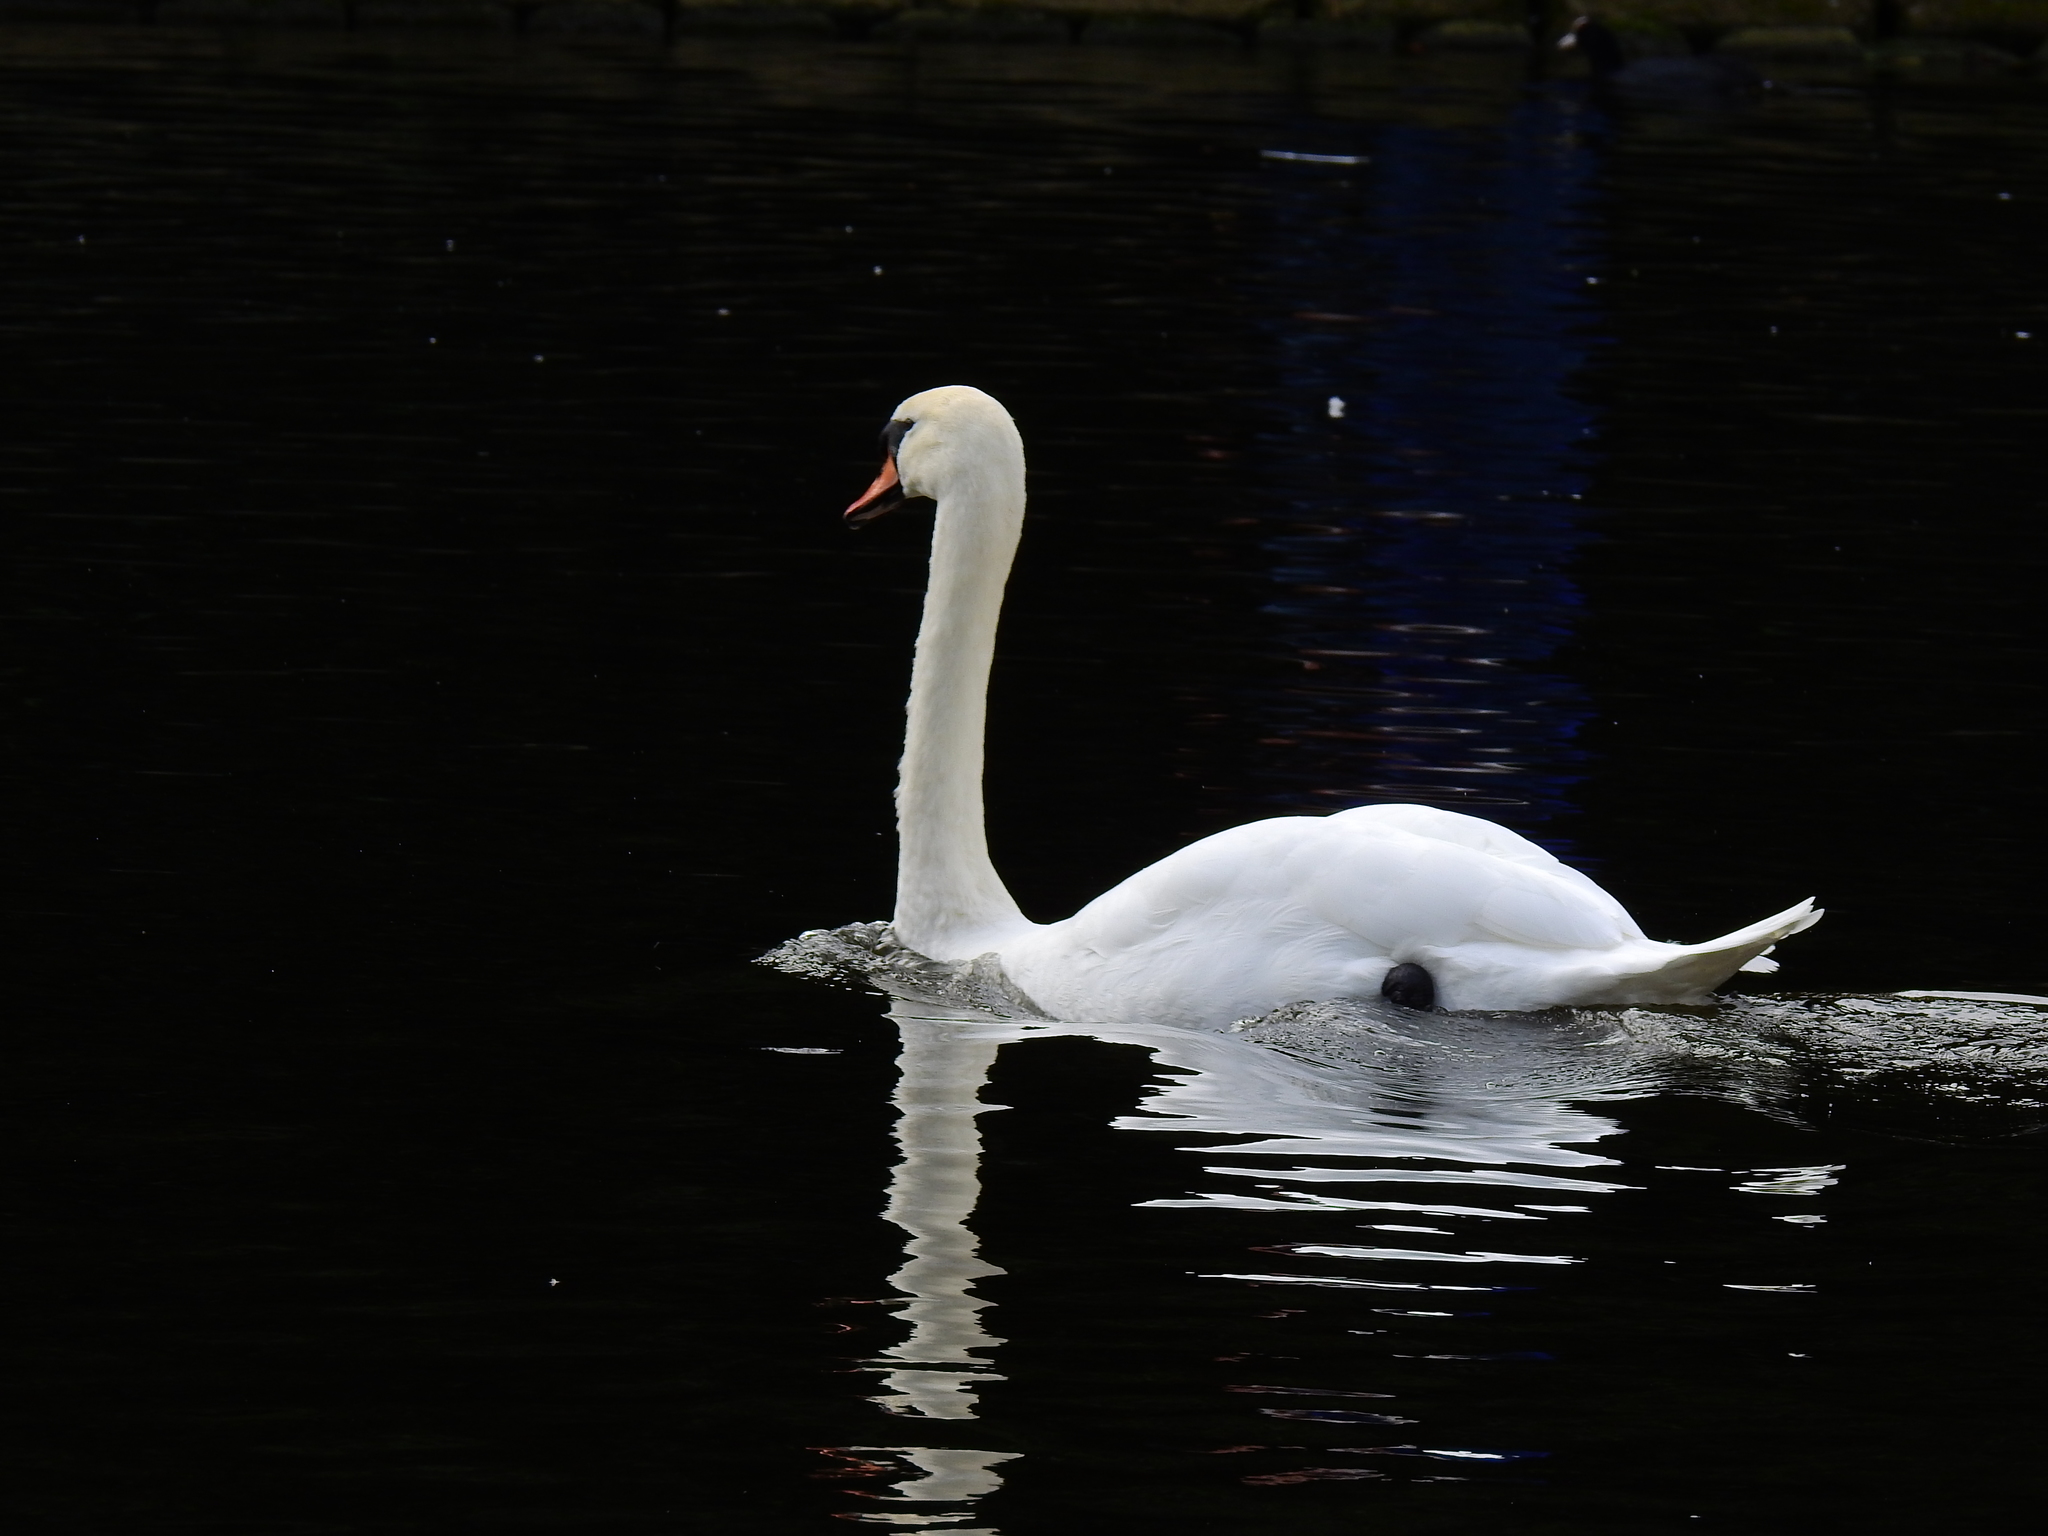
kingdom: Animalia
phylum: Chordata
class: Aves
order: Anseriformes
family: Anatidae
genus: Cygnus
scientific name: Cygnus olor
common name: Mute swan
